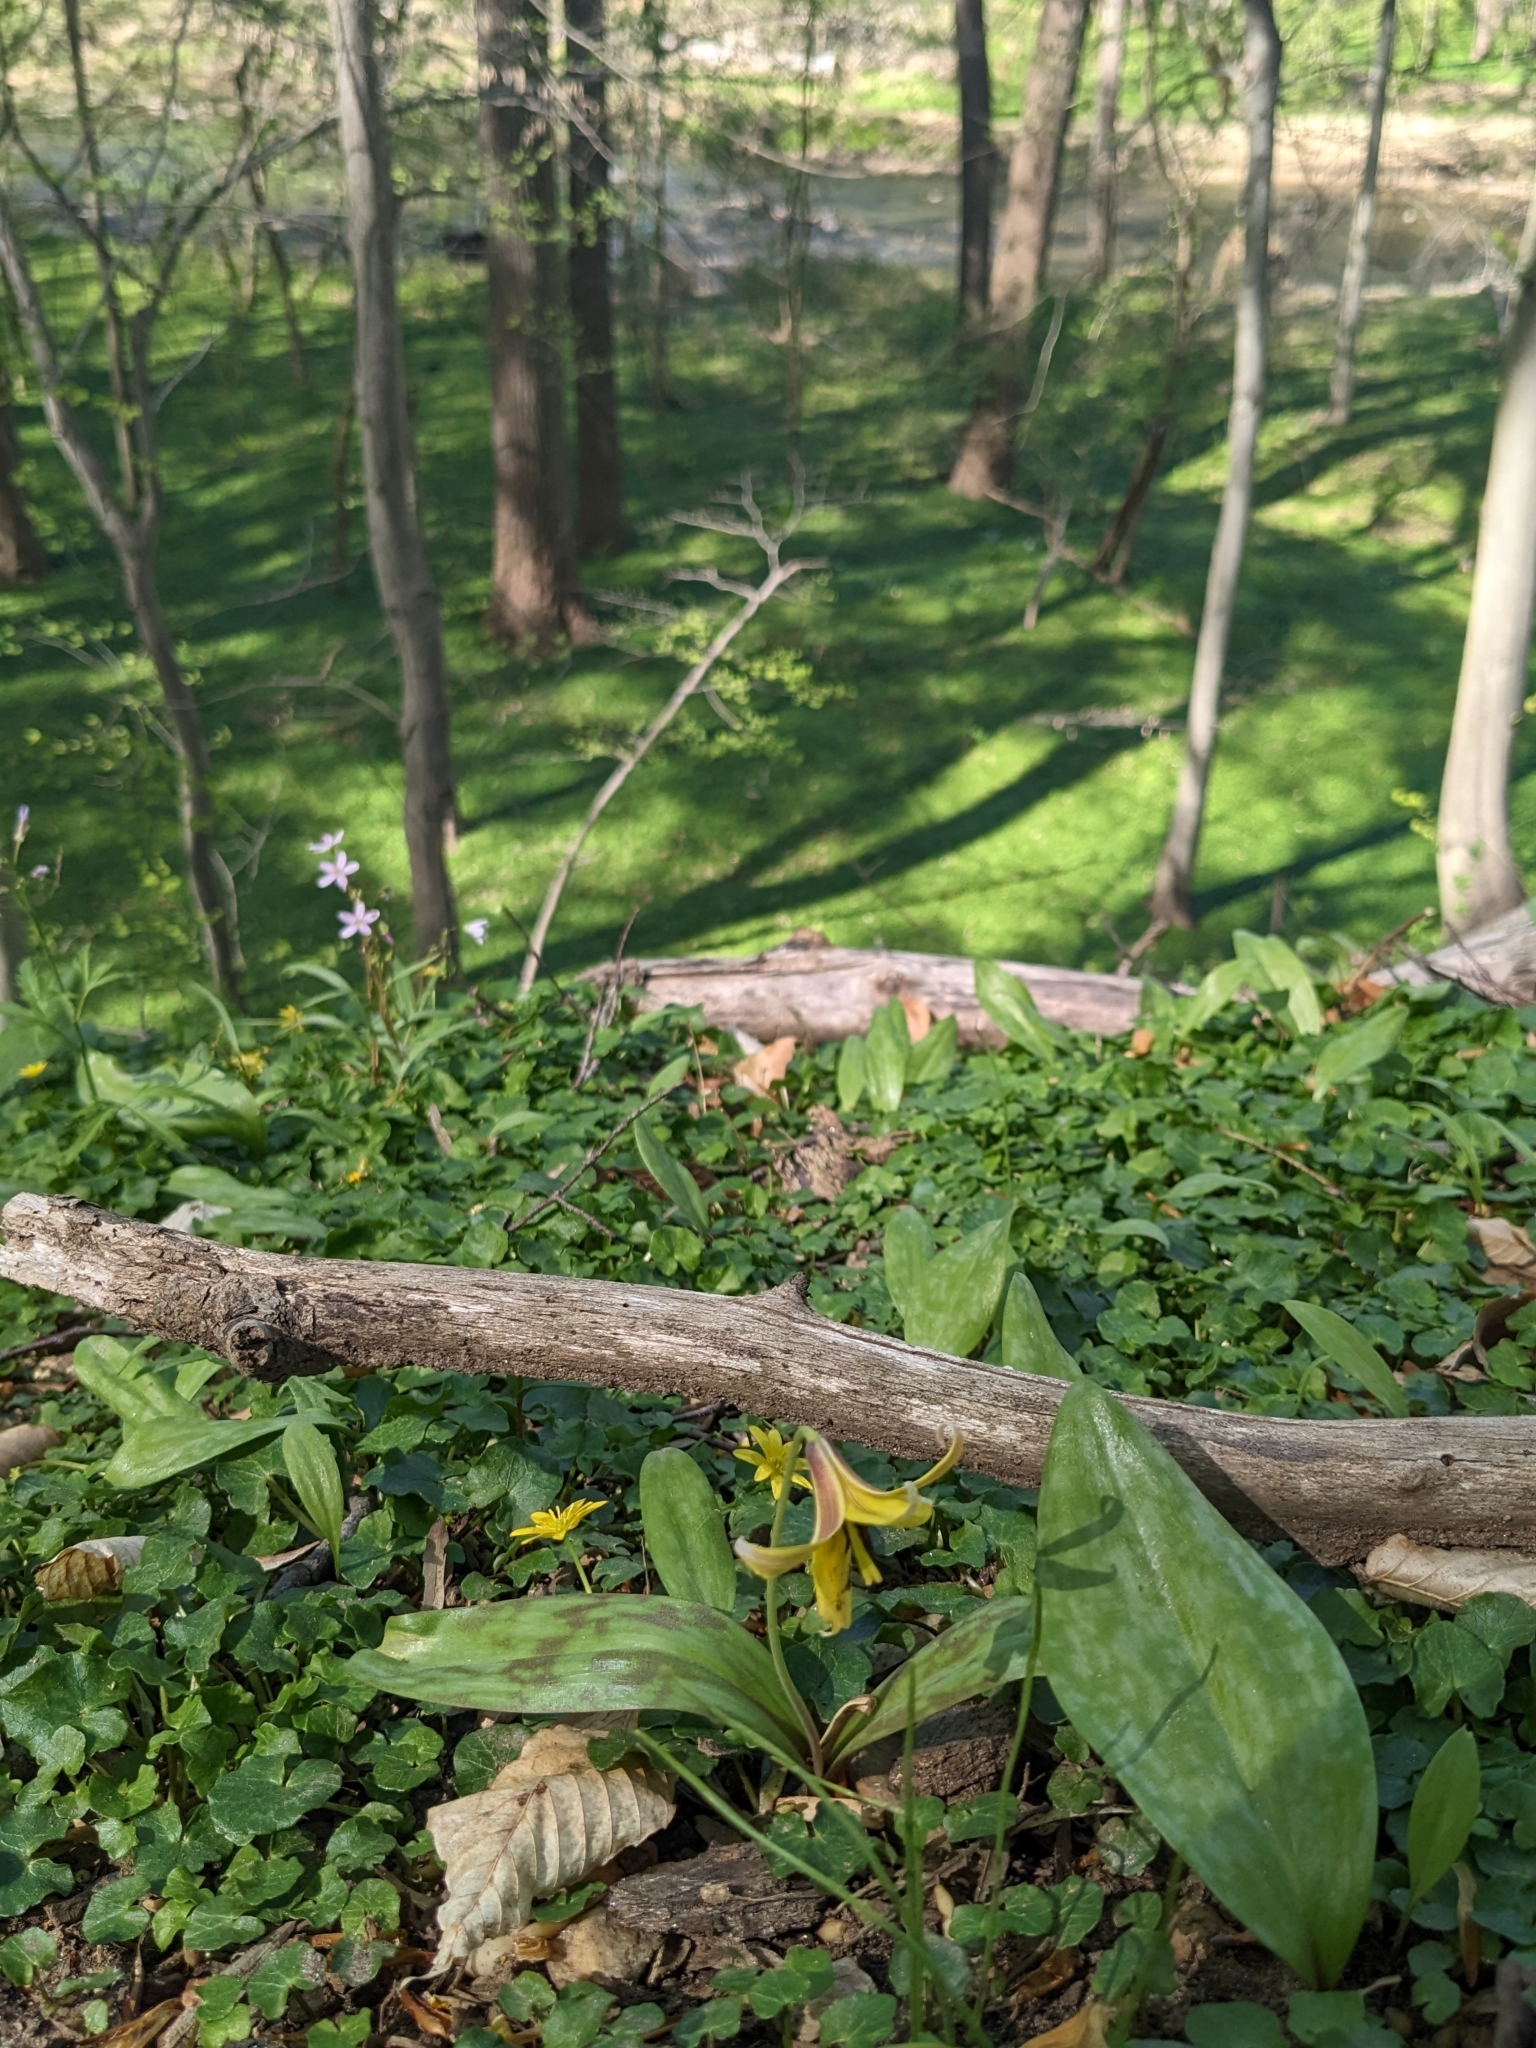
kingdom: Plantae
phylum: Tracheophyta
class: Liliopsida
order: Liliales
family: Liliaceae
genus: Erythronium
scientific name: Erythronium americanum
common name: Yellow adder's-tongue
